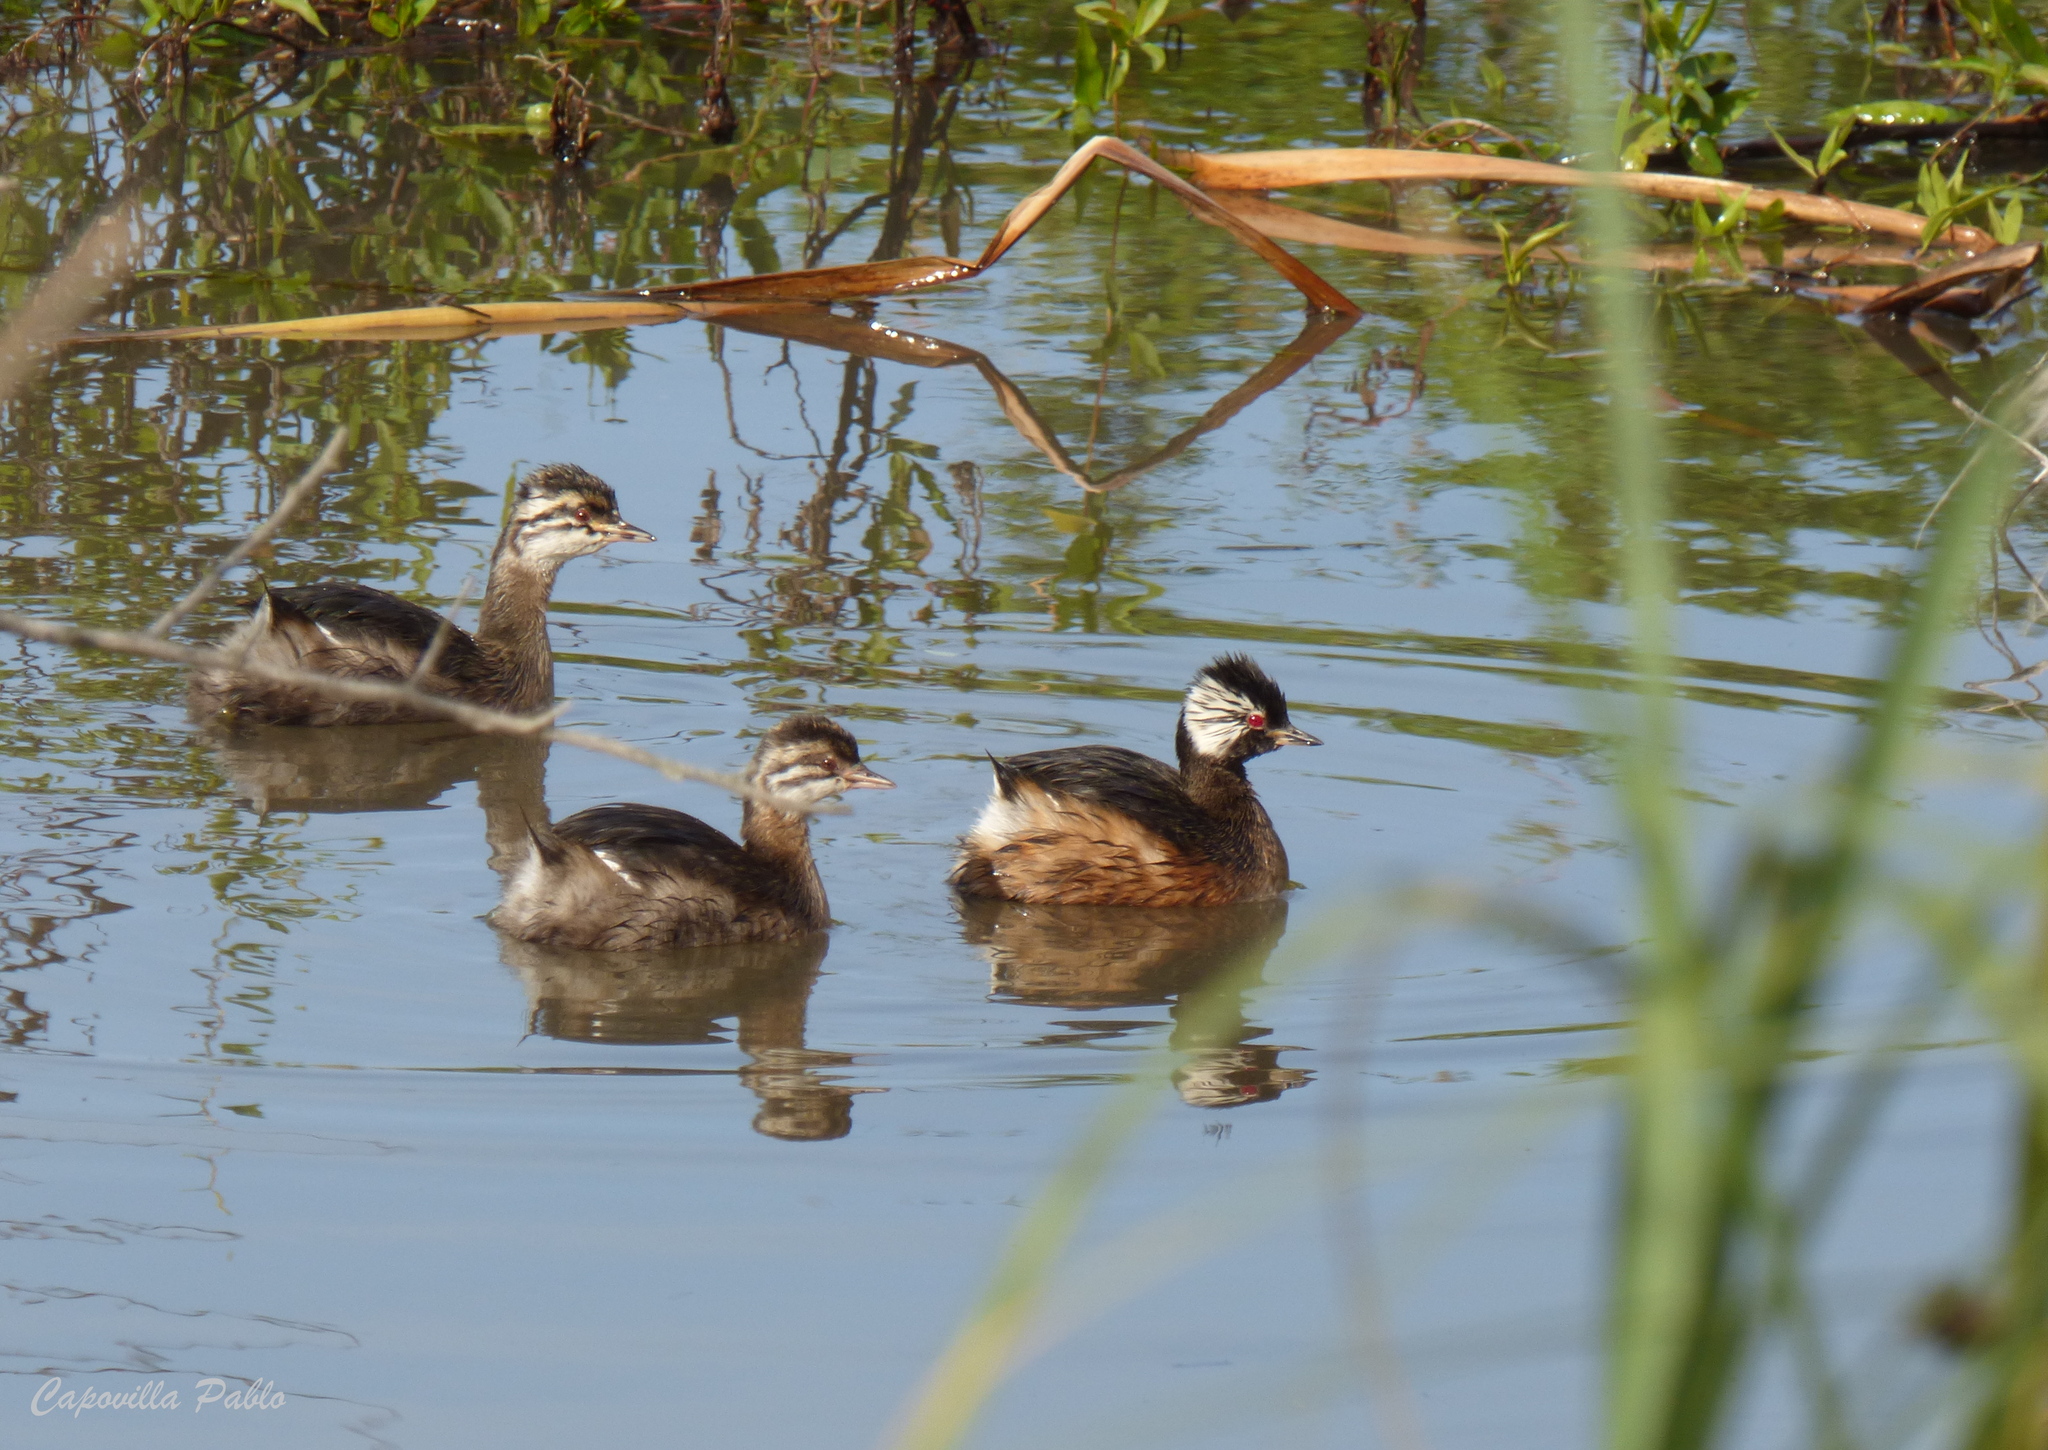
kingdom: Animalia
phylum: Chordata
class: Aves
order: Podicipediformes
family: Podicipedidae
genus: Rollandia
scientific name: Rollandia rolland
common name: White-tufted grebe
